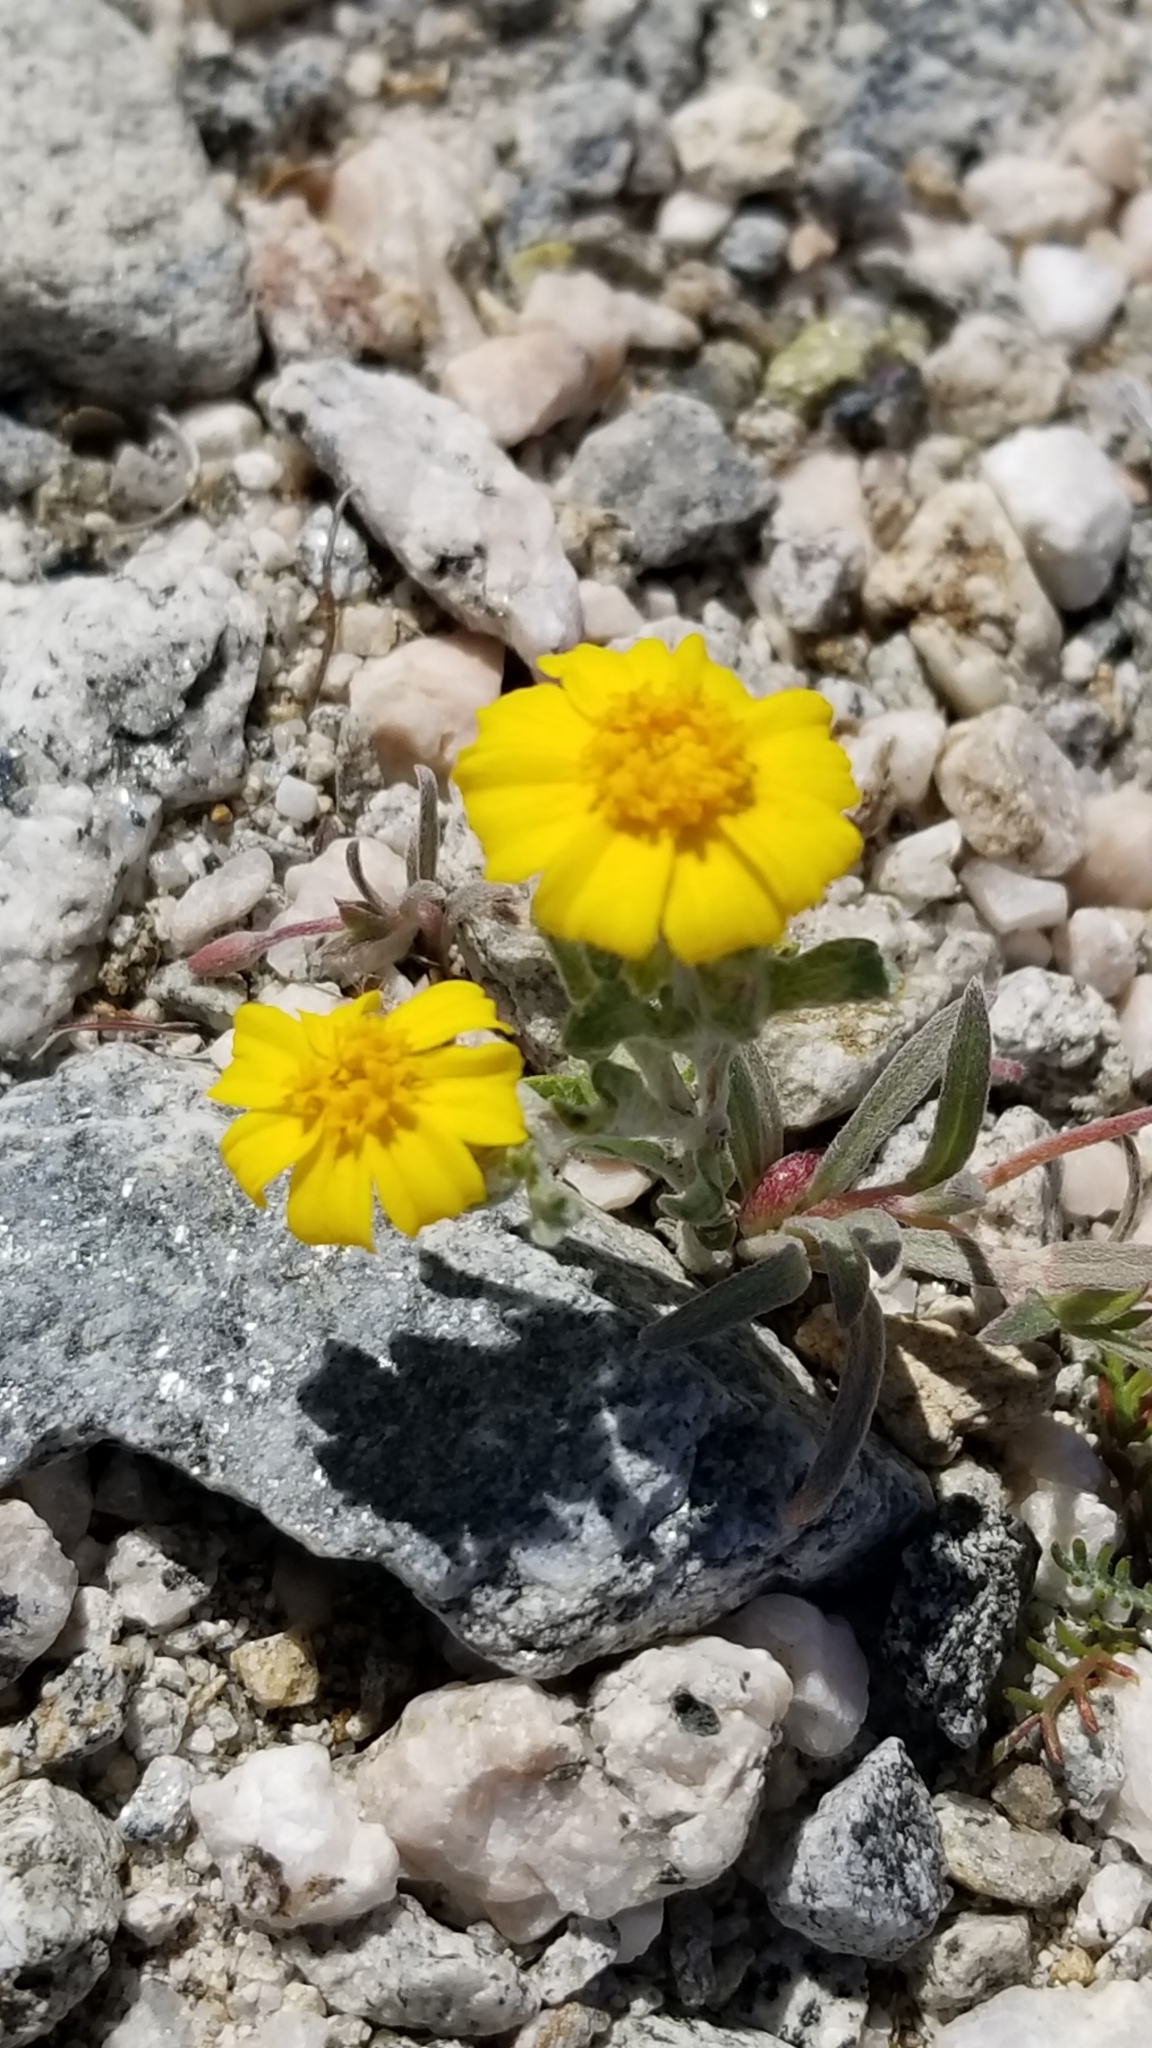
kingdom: Plantae
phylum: Tracheophyta
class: Magnoliopsida
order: Asterales
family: Asteraceae
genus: Eriophyllum
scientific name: Eriophyllum wallacei
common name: Wallace's woolly daisy
